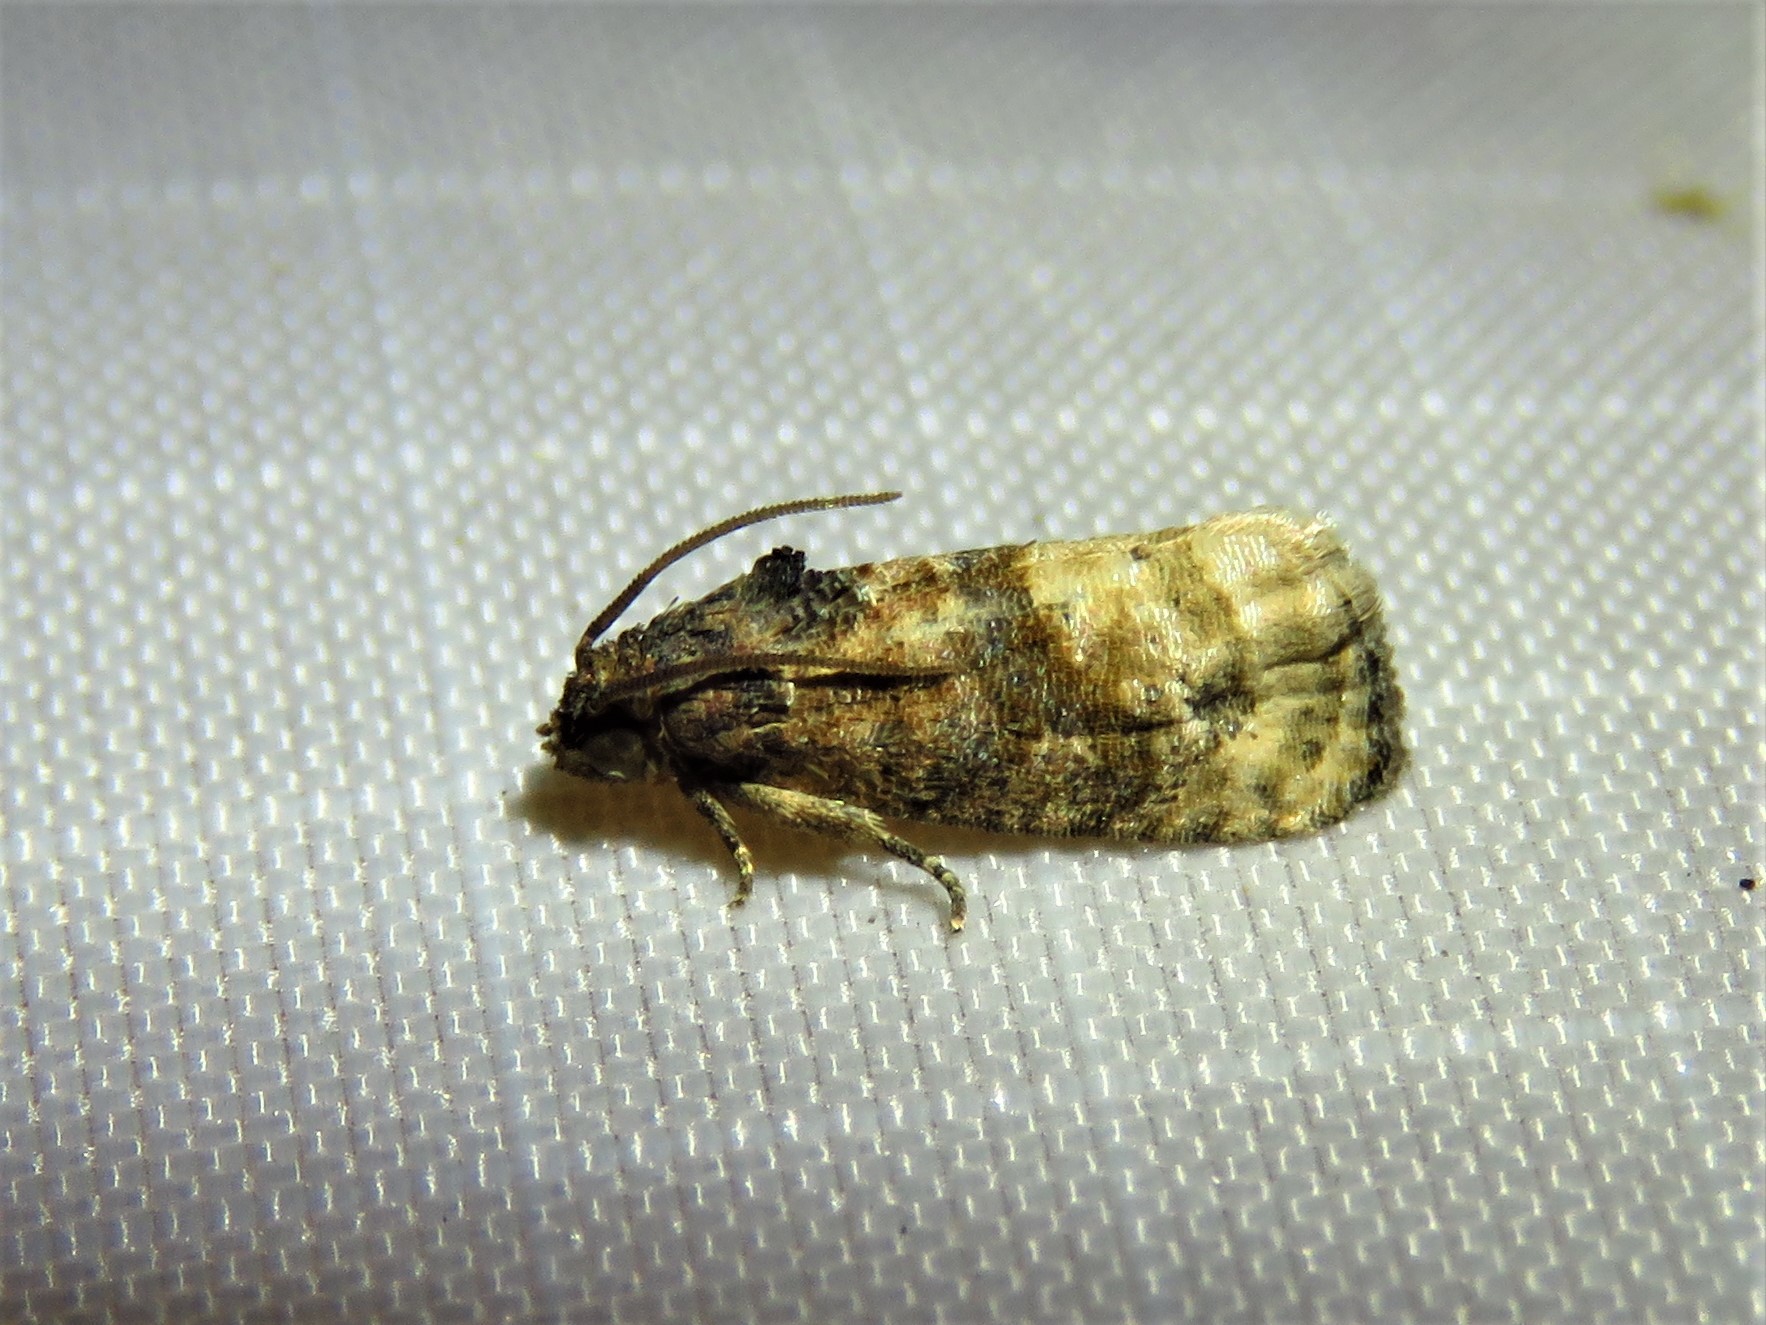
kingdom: Animalia
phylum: Arthropoda
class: Insecta
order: Lepidoptera
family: Tortricidae
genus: Ecdytolopha
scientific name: Ecdytolopha mana
